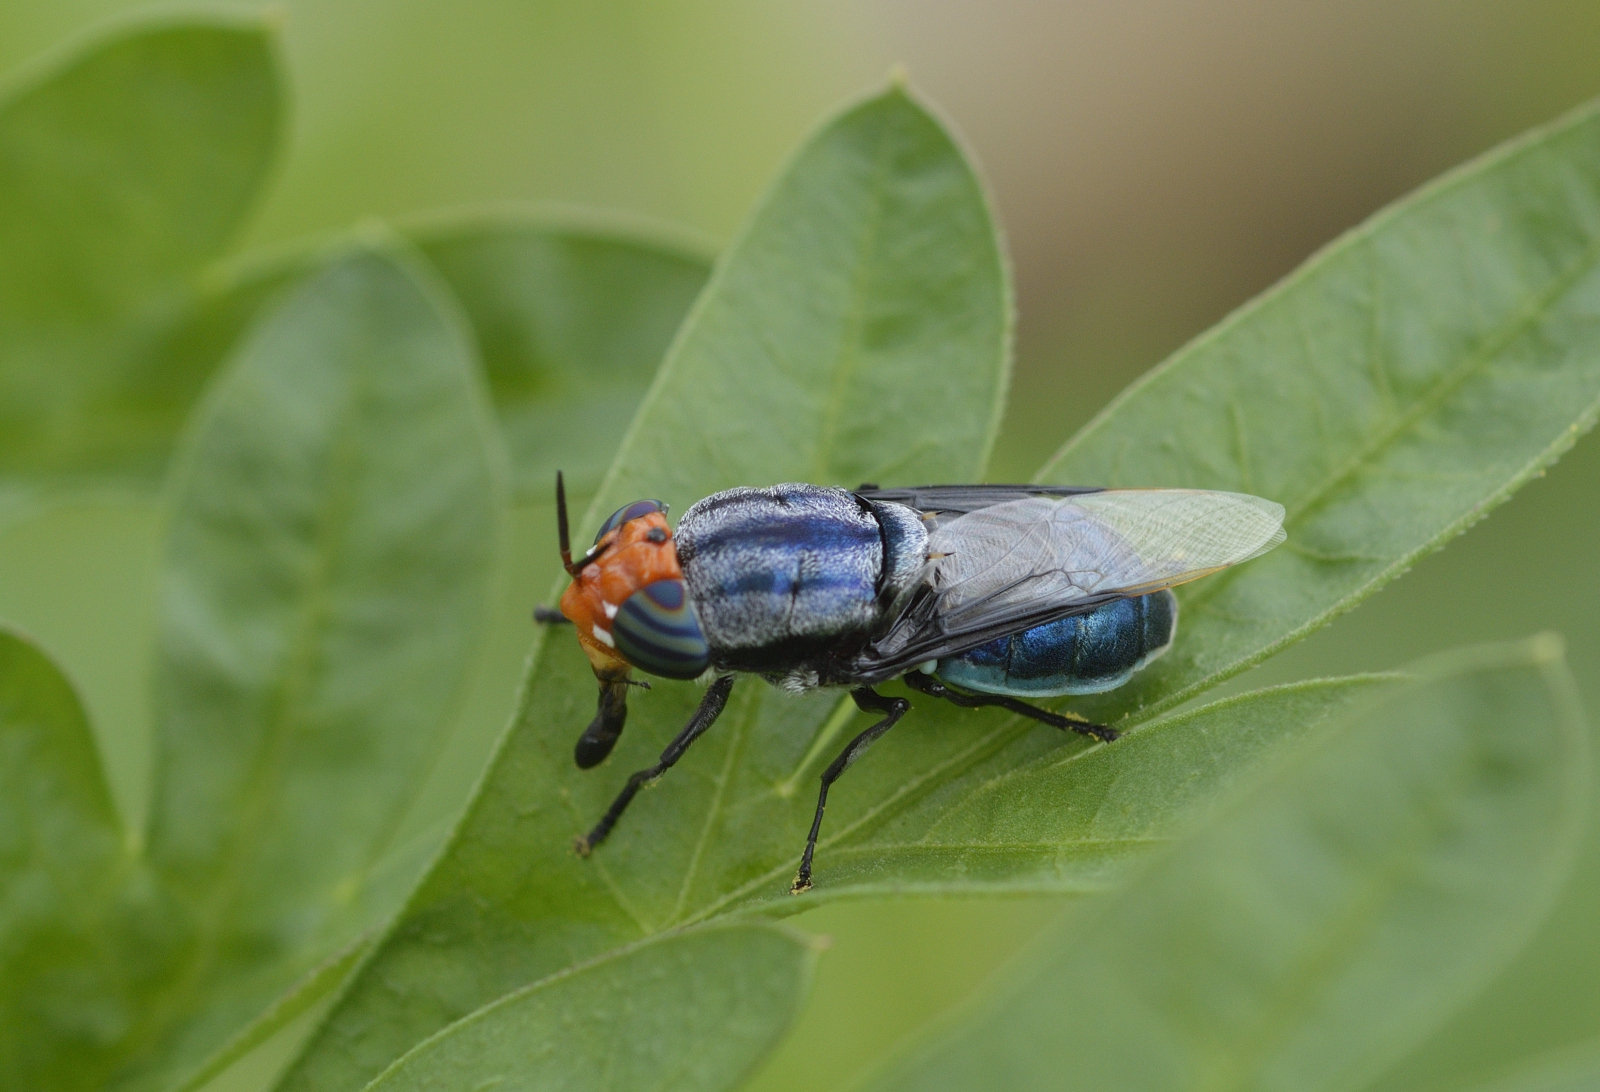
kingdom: Animalia
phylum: Arthropoda
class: Insecta
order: Diptera
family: Stratiomyidae
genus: Odontomyia
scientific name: Odontomyia cyanea
